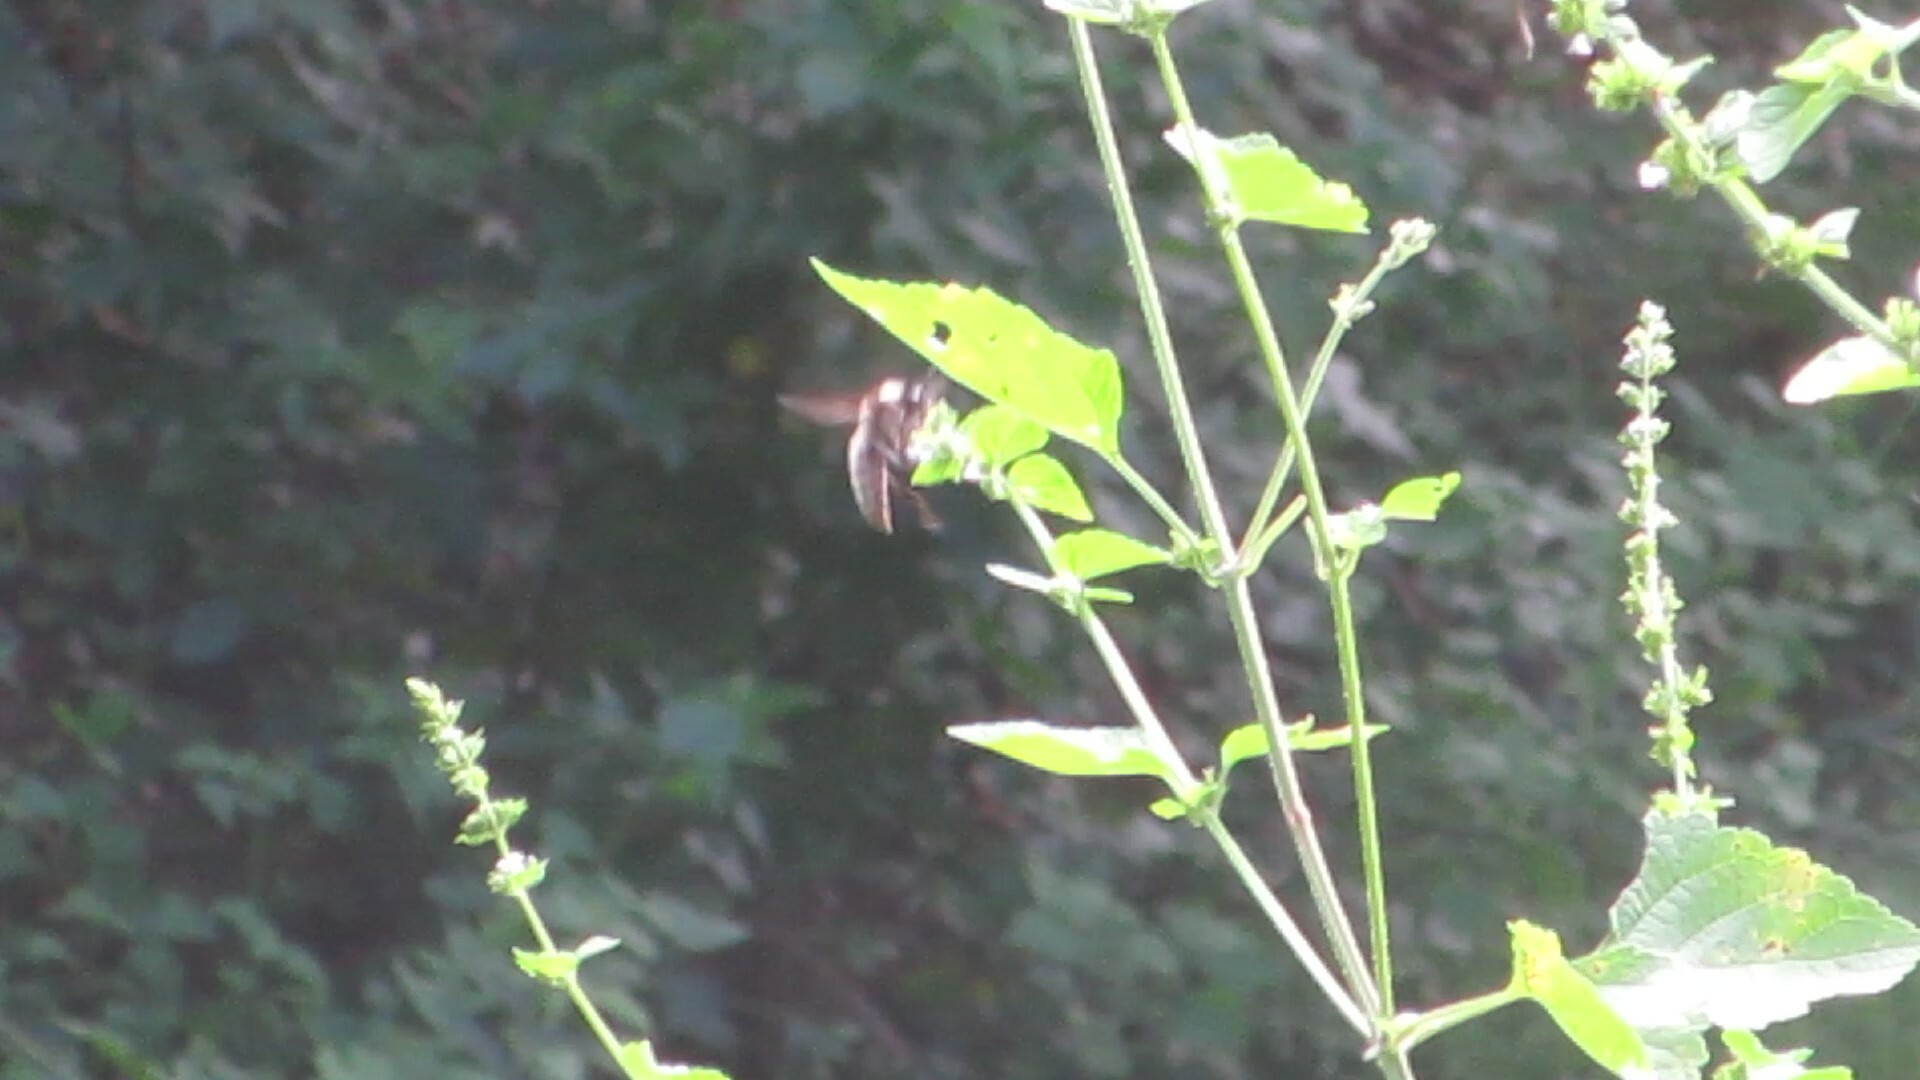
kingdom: Plantae
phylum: Tracheophyta
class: Magnoliopsida
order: Lamiales
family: Lamiaceae
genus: Cantinoa
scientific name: Cantinoa mutabilis
